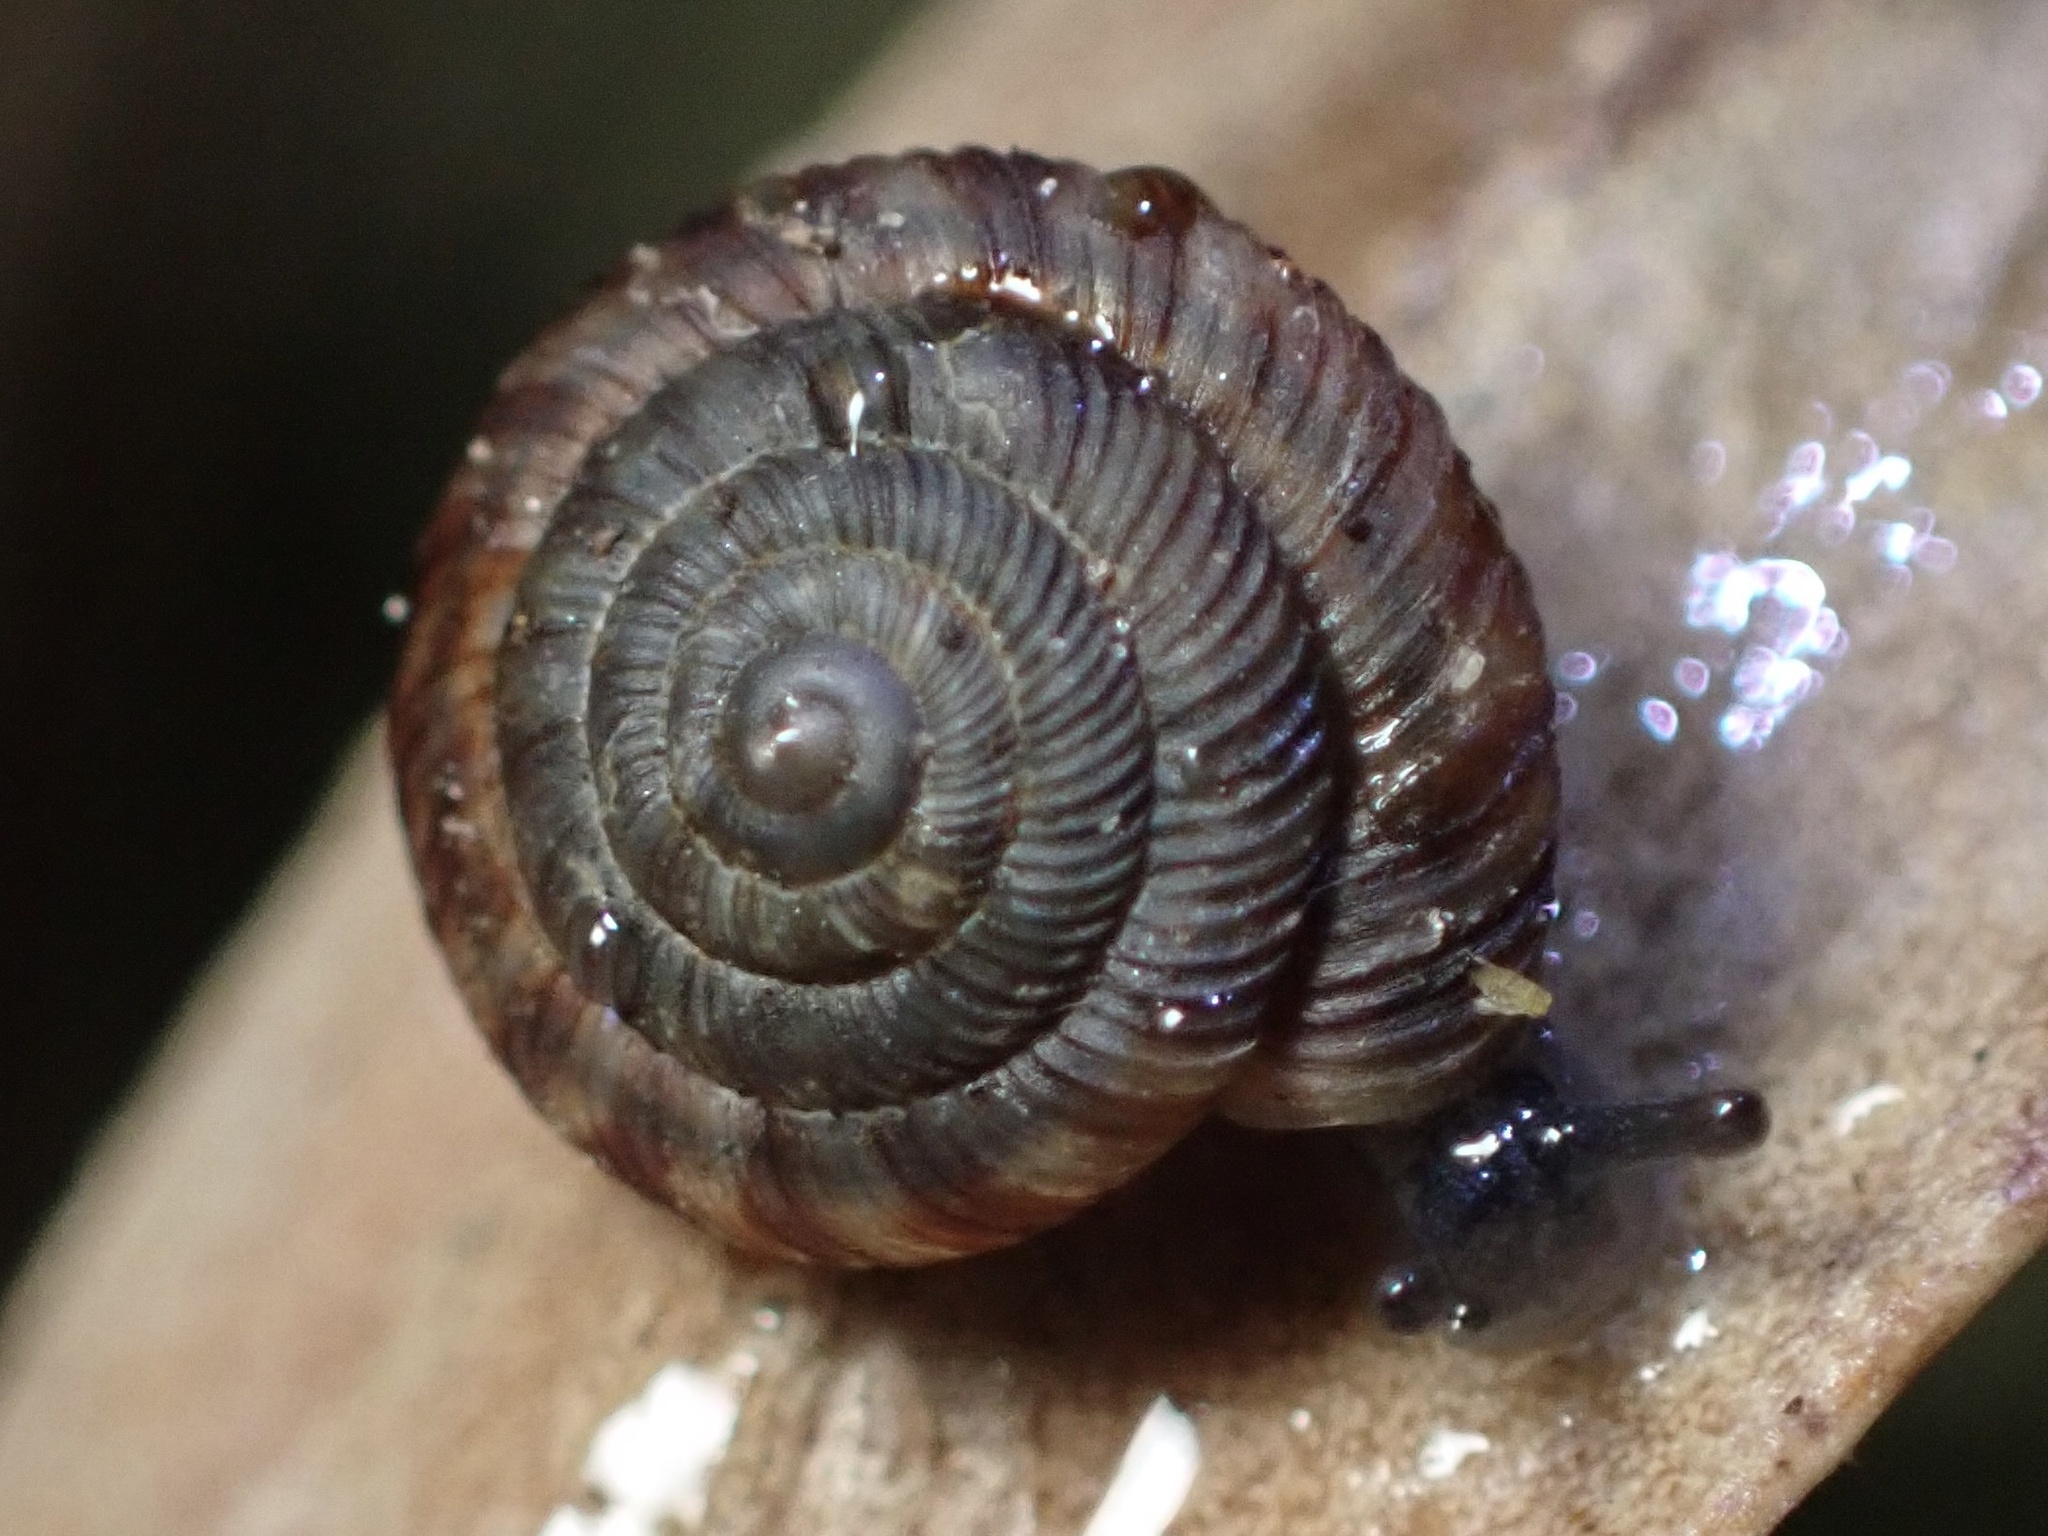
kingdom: Animalia
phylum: Mollusca
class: Gastropoda
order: Stylommatophora
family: Discidae
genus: Discus
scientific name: Discus rotundatus
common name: Rounded snail
